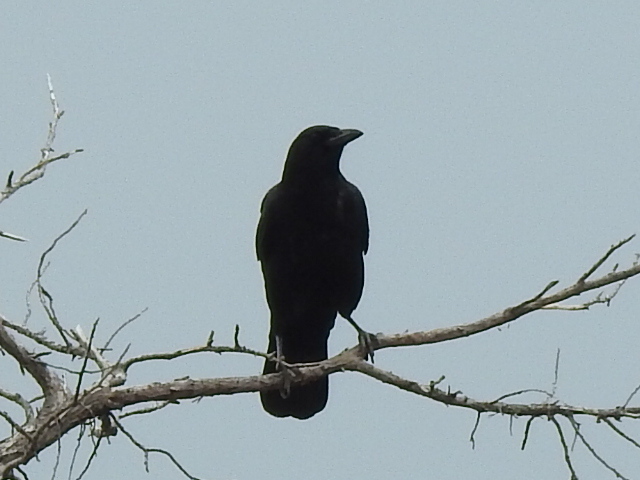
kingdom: Animalia
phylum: Chordata
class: Aves
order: Passeriformes
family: Corvidae
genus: Corvus
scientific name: Corvus brachyrhynchos
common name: American crow
